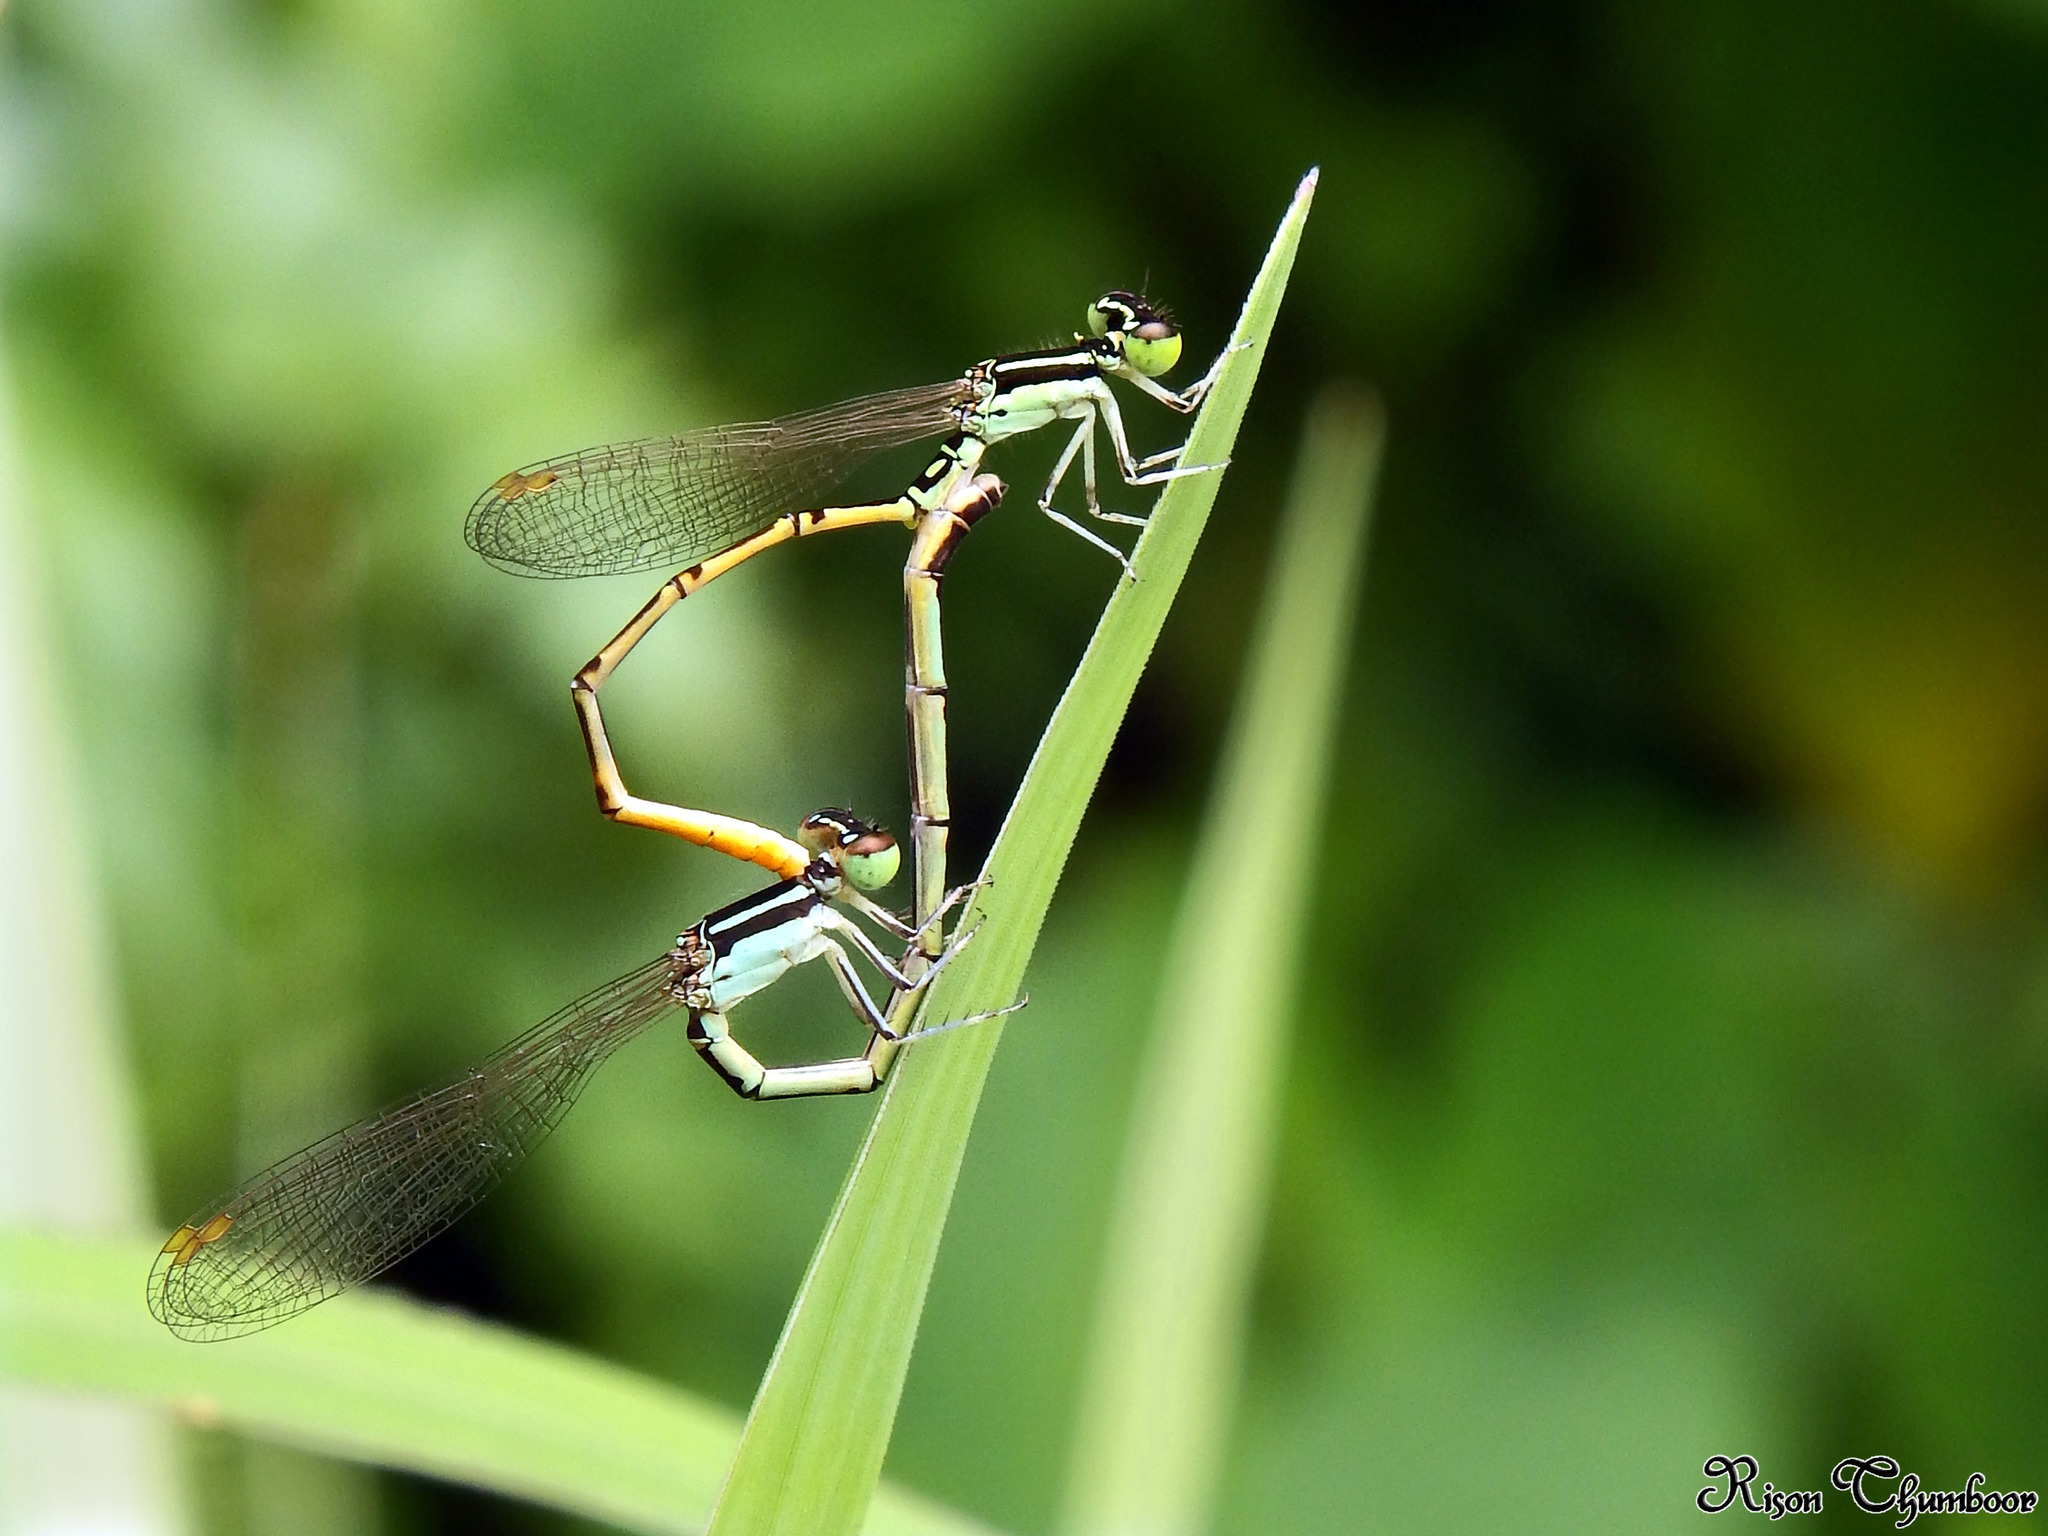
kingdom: Animalia
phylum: Arthropoda
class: Insecta
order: Odonata
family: Coenagrionidae
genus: Agriocnemis
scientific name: Agriocnemis keralensis
